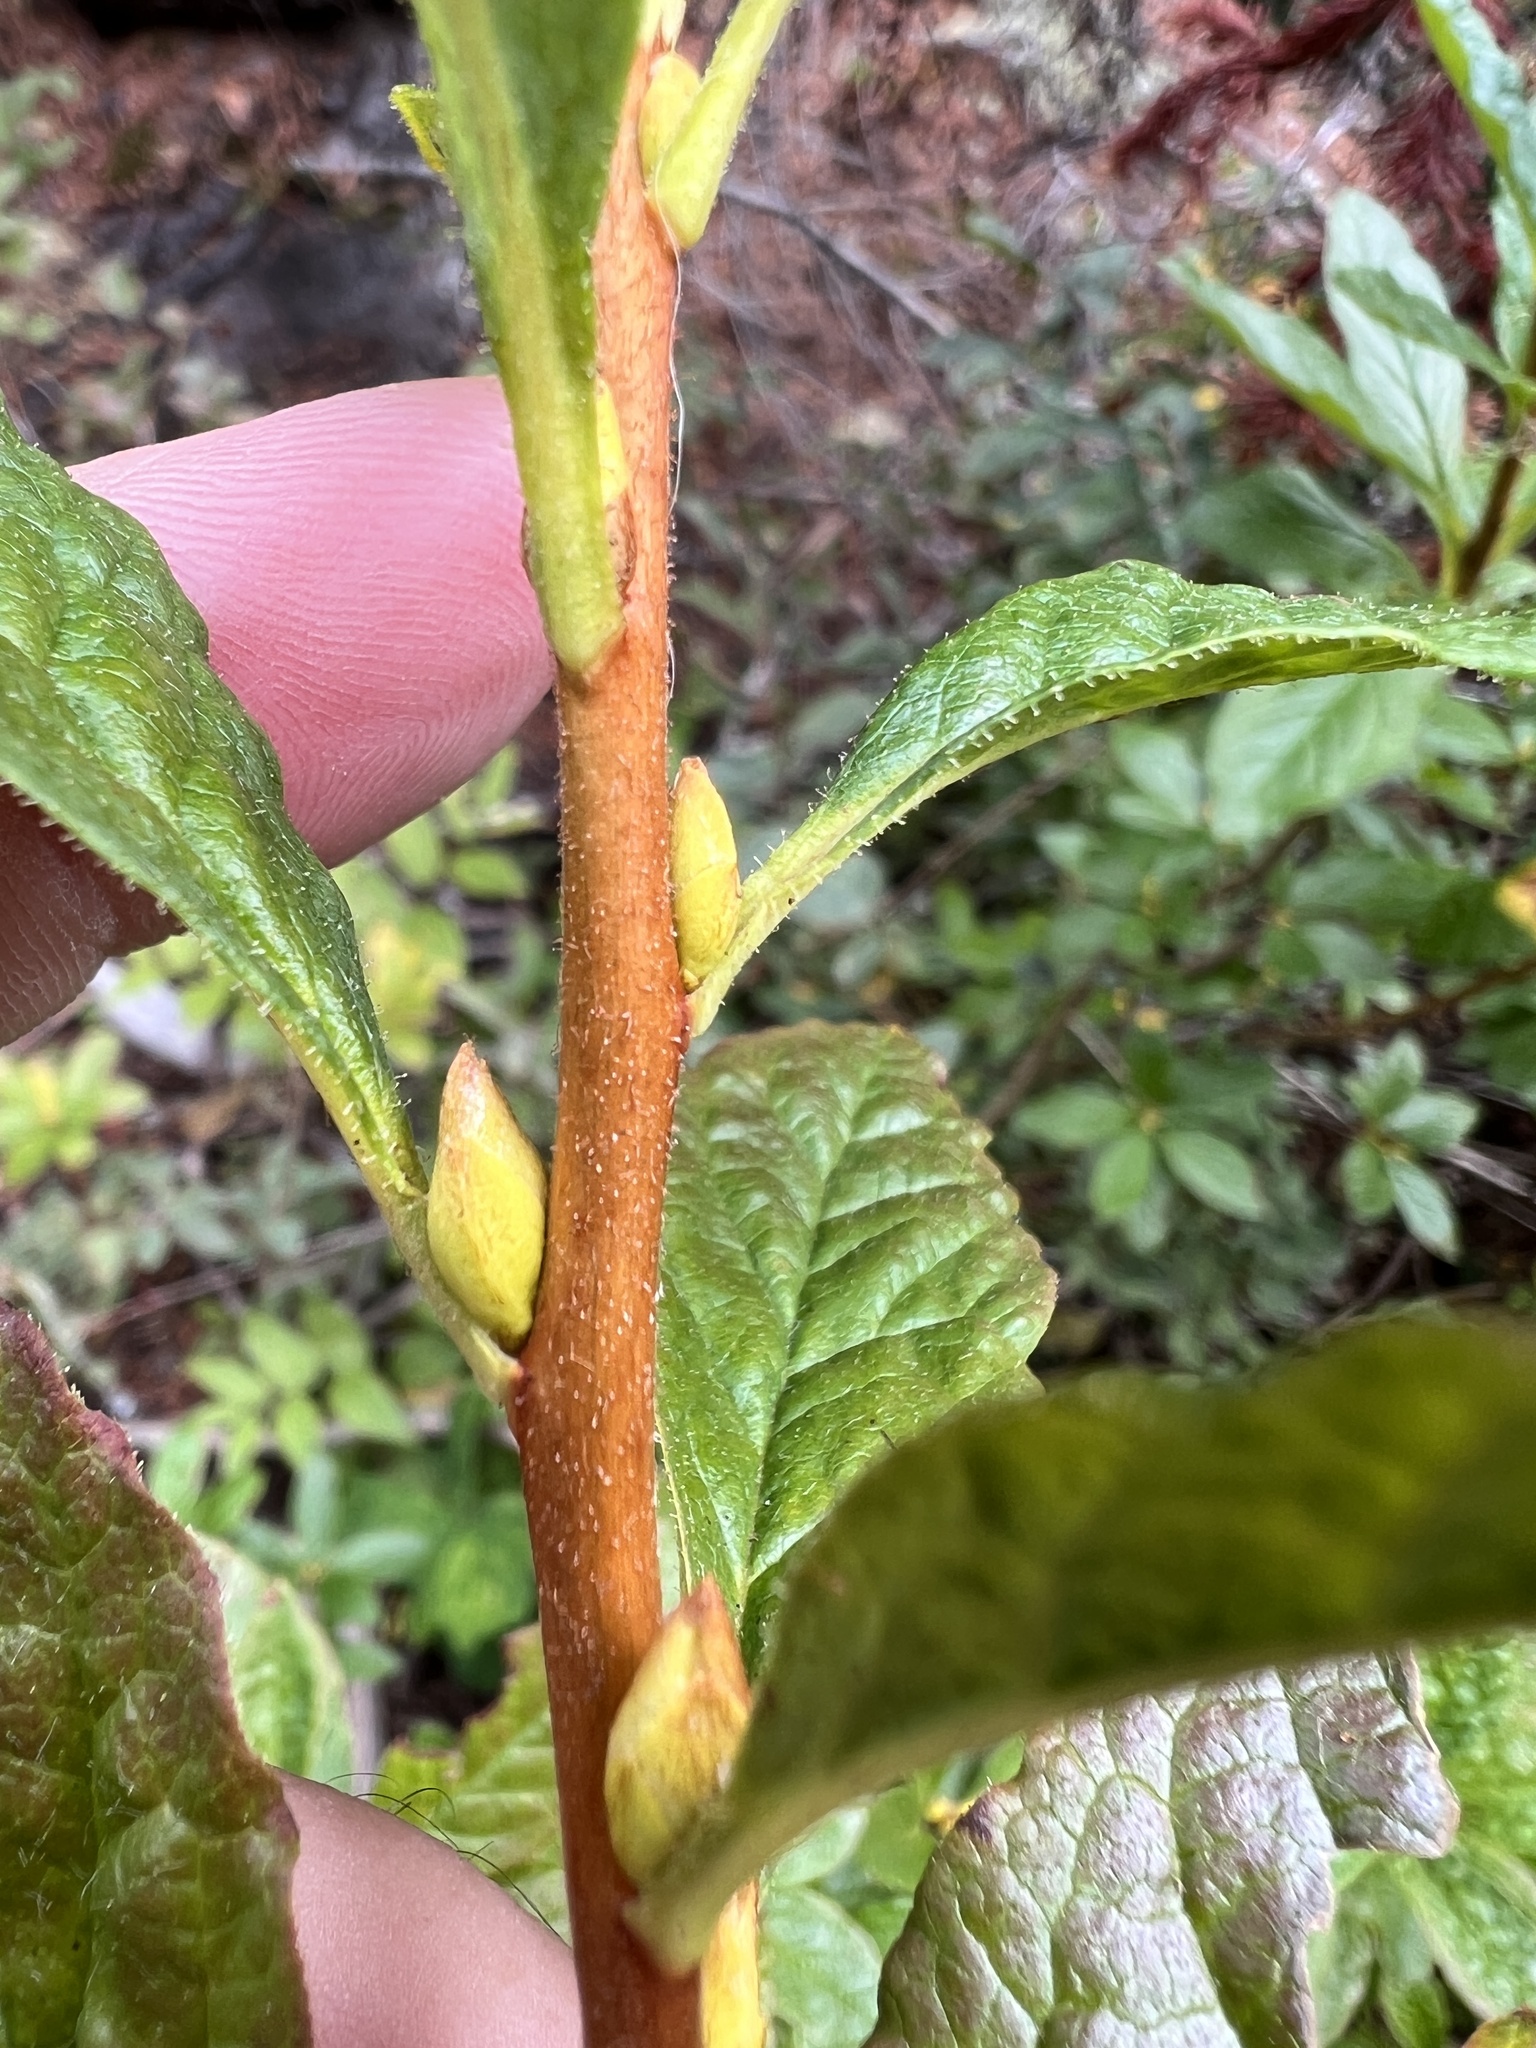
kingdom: Plantae
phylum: Tracheophyta
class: Magnoliopsida
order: Ericales
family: Ericaceae
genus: Rhododendron
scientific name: Rhododendron albiflorum
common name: White rhododendron
